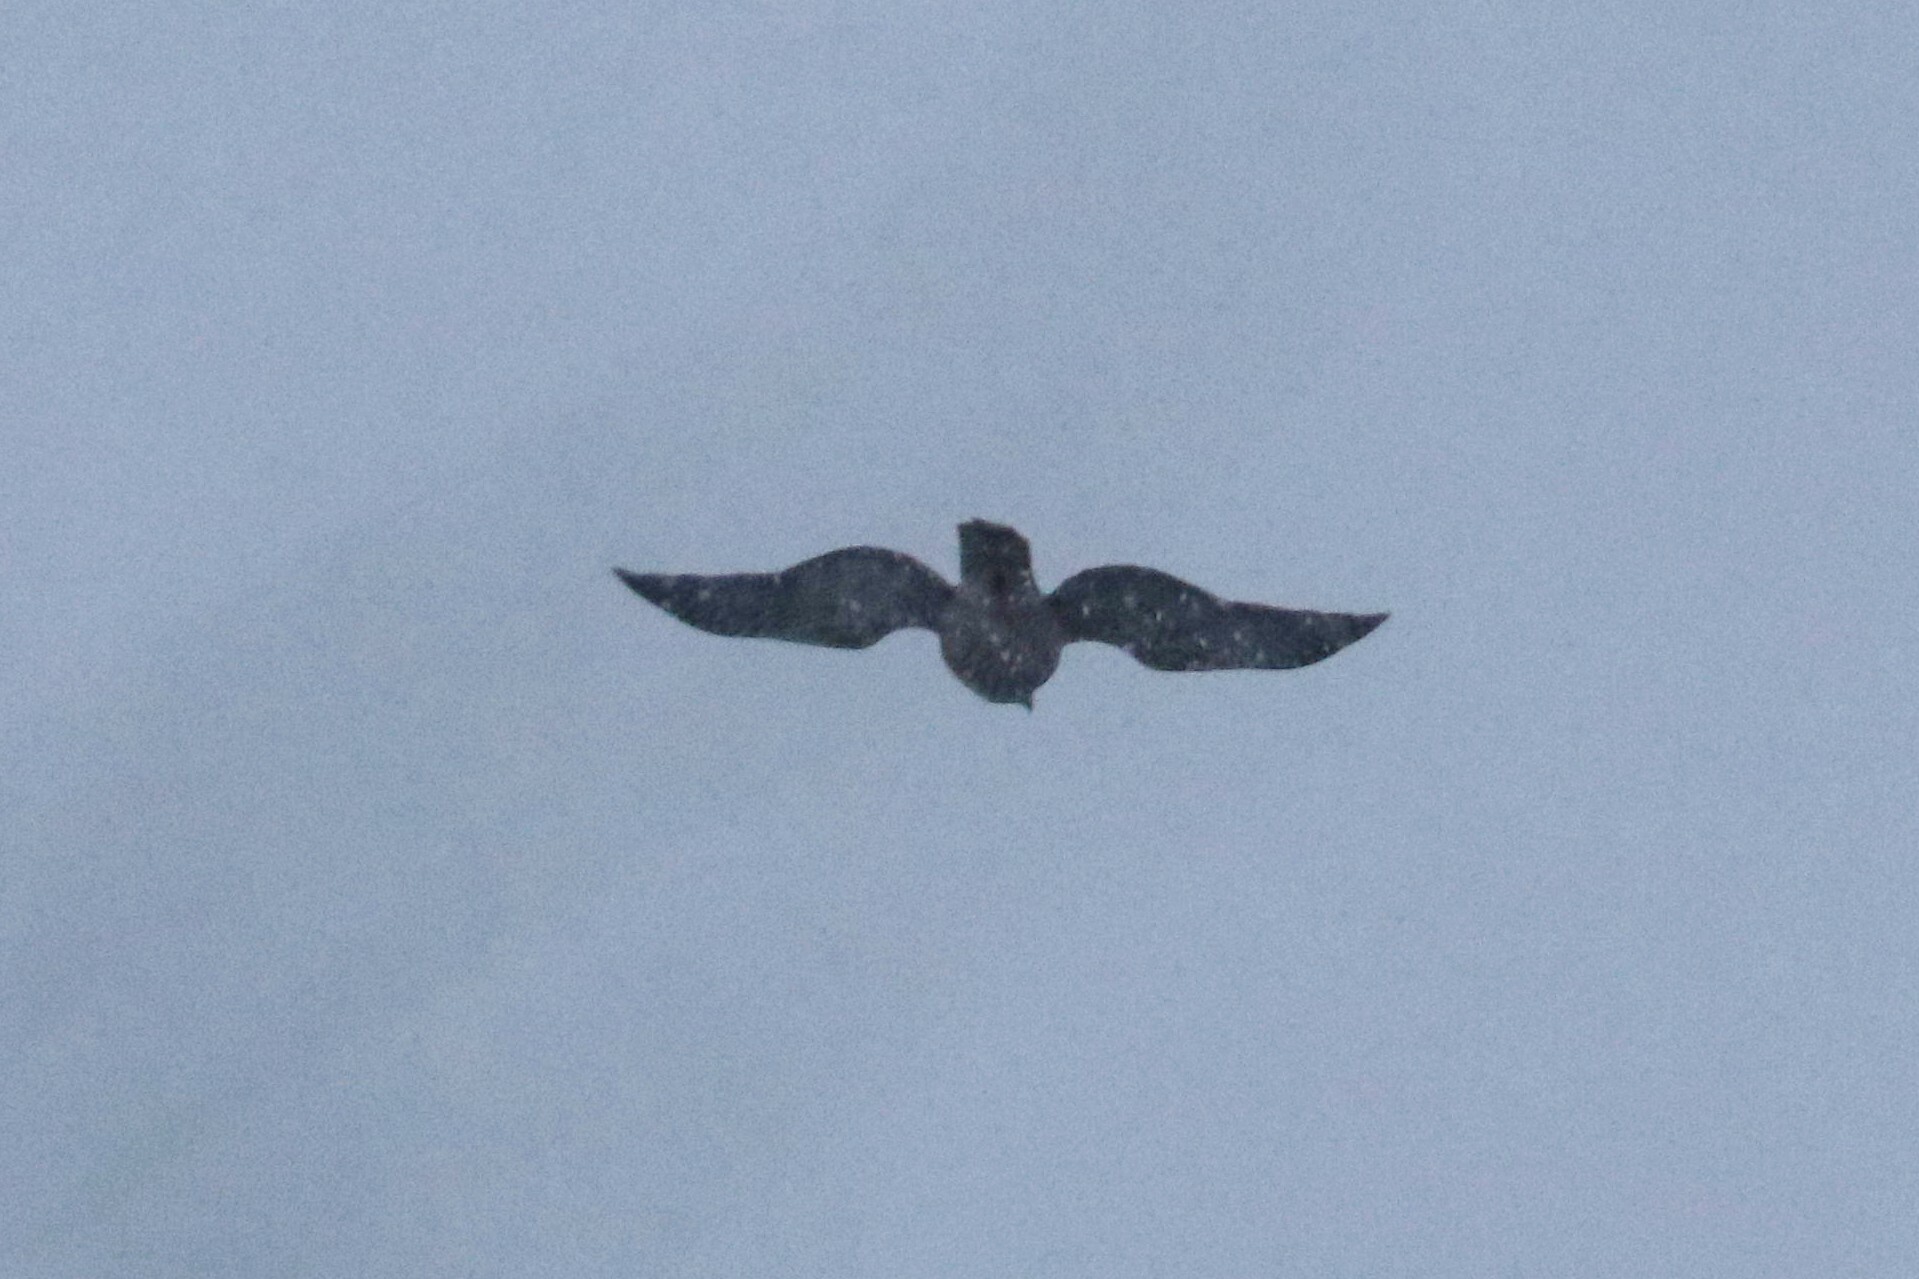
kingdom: Animalia
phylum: Chordata
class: Aves
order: Accipitriformes
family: Accipitridae
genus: Accipiter
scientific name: Accipiter gentilis
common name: Northern goshawk
